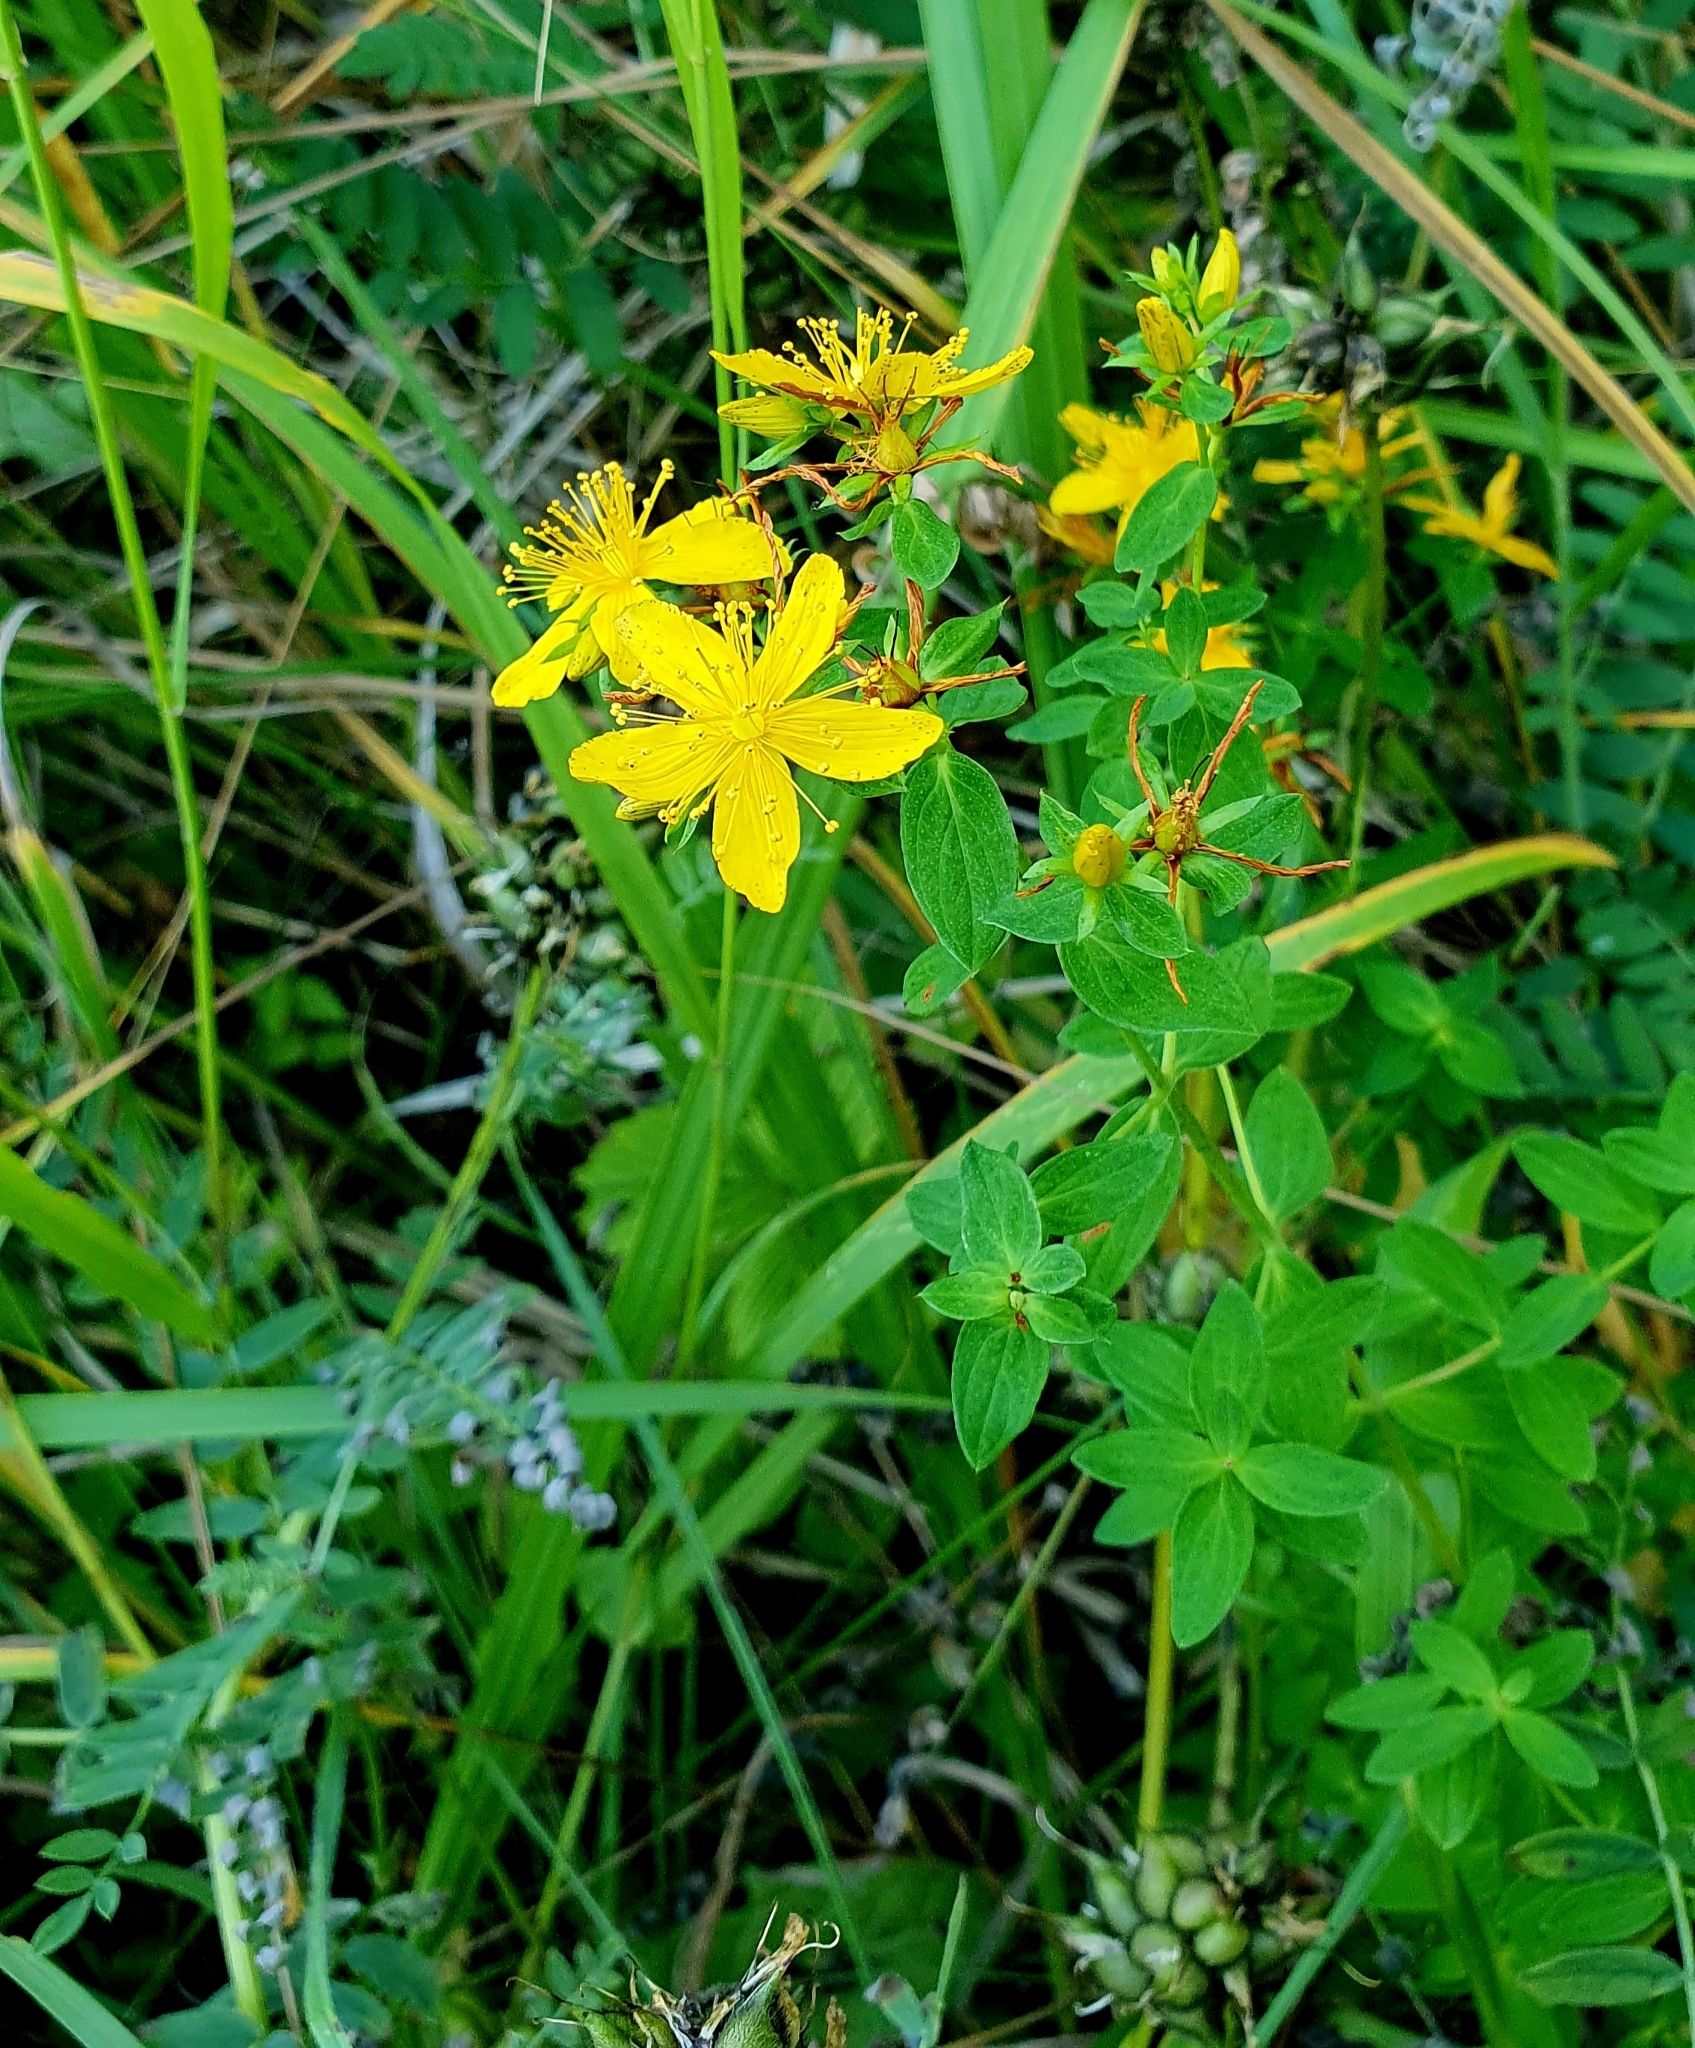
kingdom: Plantae
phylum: Tracheophyta
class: Magnoliopsida
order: Malpighiales
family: Hypericaceae
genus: Hypericum
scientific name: Hypericum perforatum
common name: Common st. johnswort
